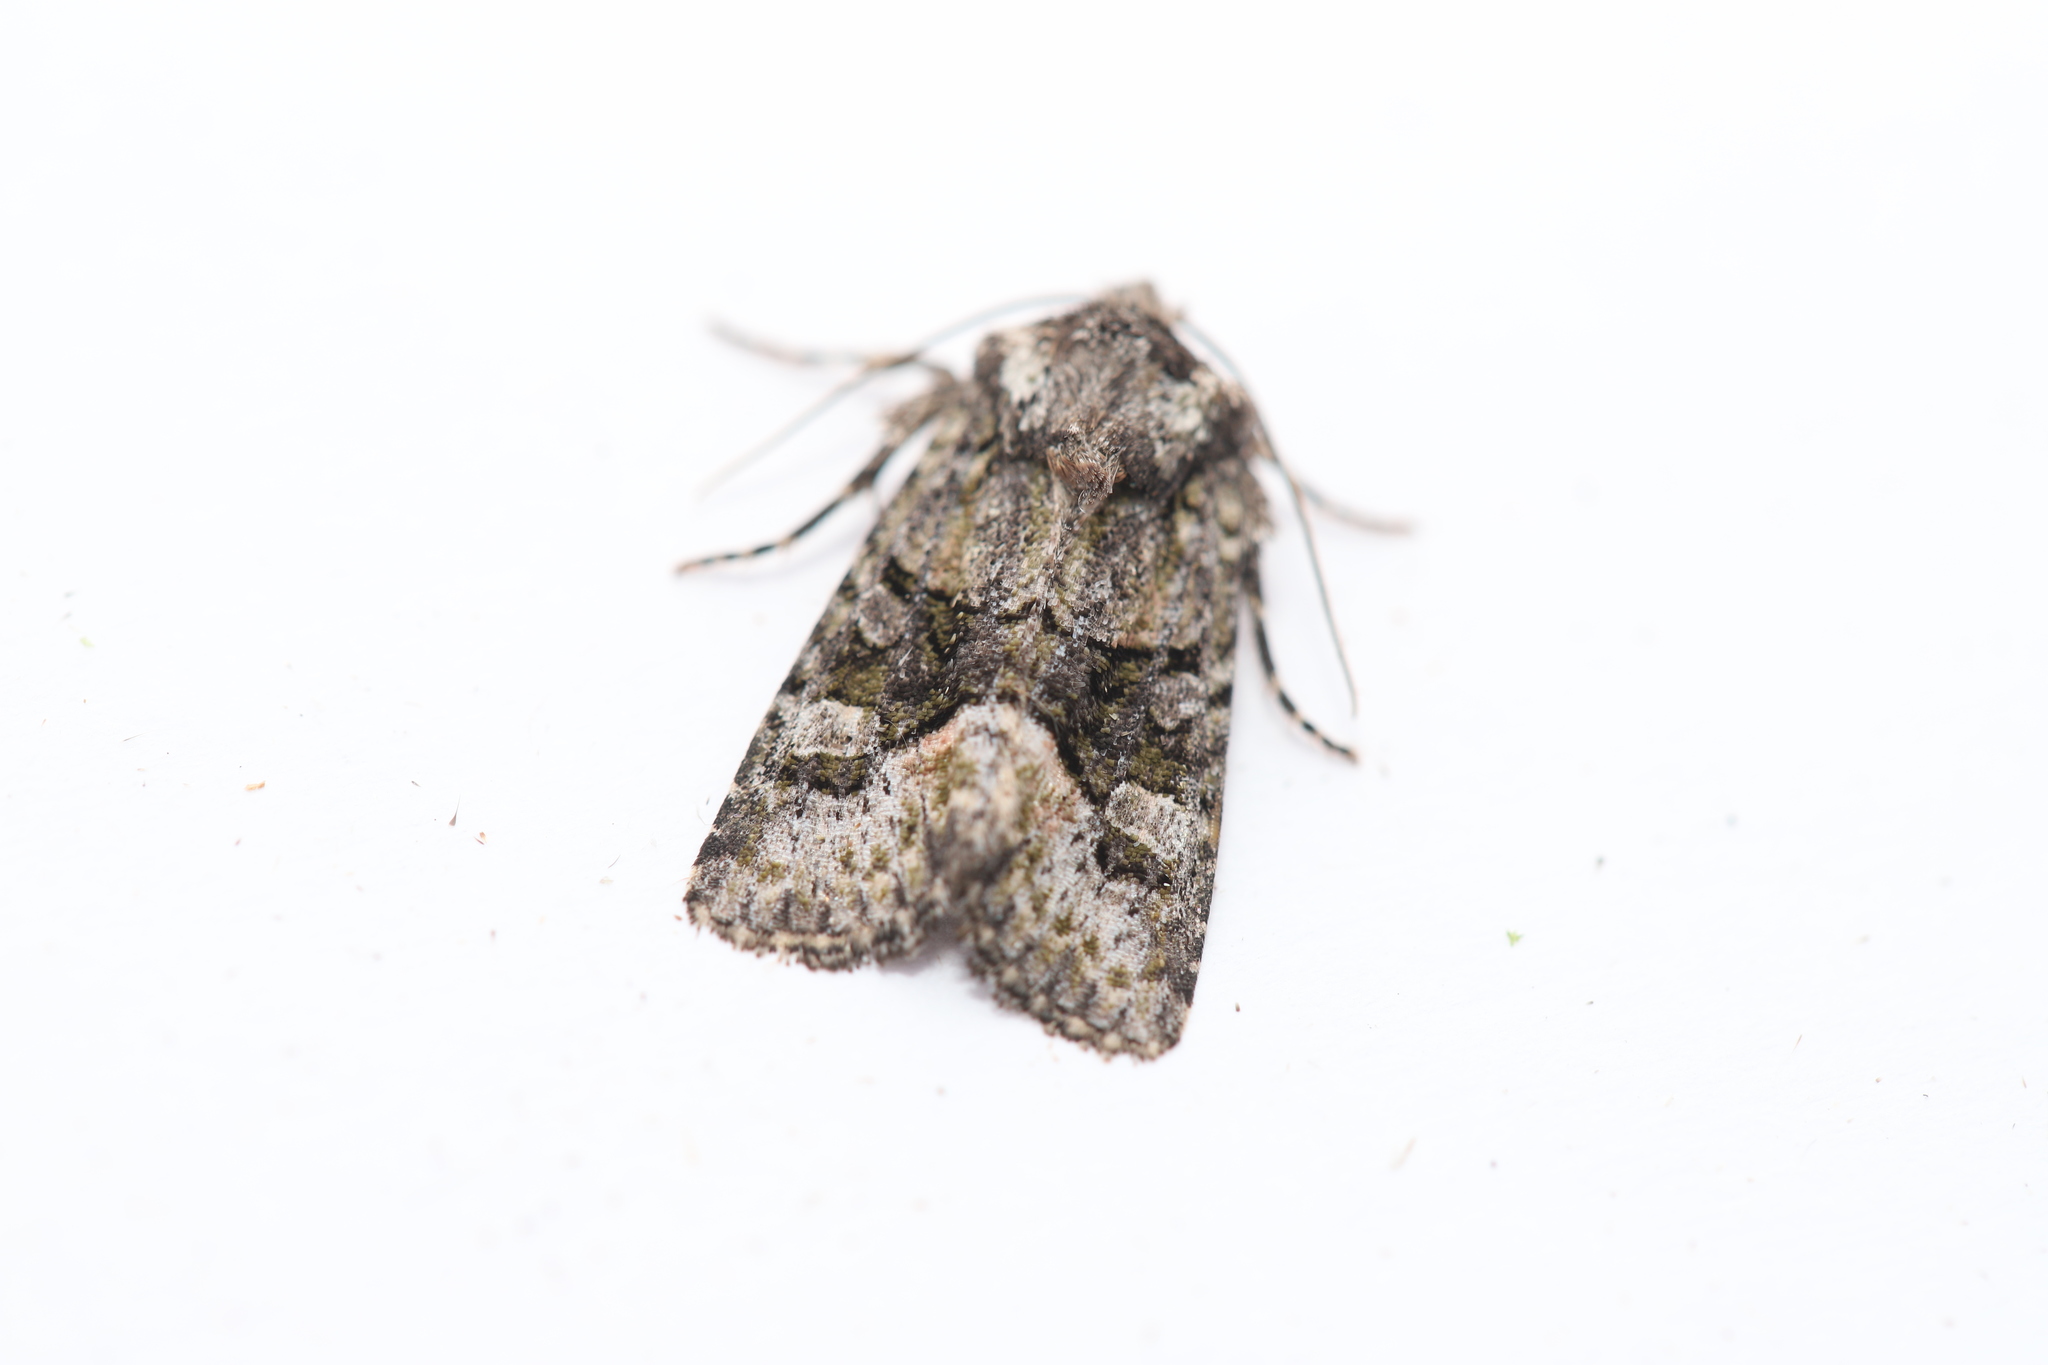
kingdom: Animalia
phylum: Arthropoda
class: Insecta
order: Lepidoptera
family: Noctuidae
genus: Lacinipolia
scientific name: Lacinipolia olivacea
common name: Olive arches moth
